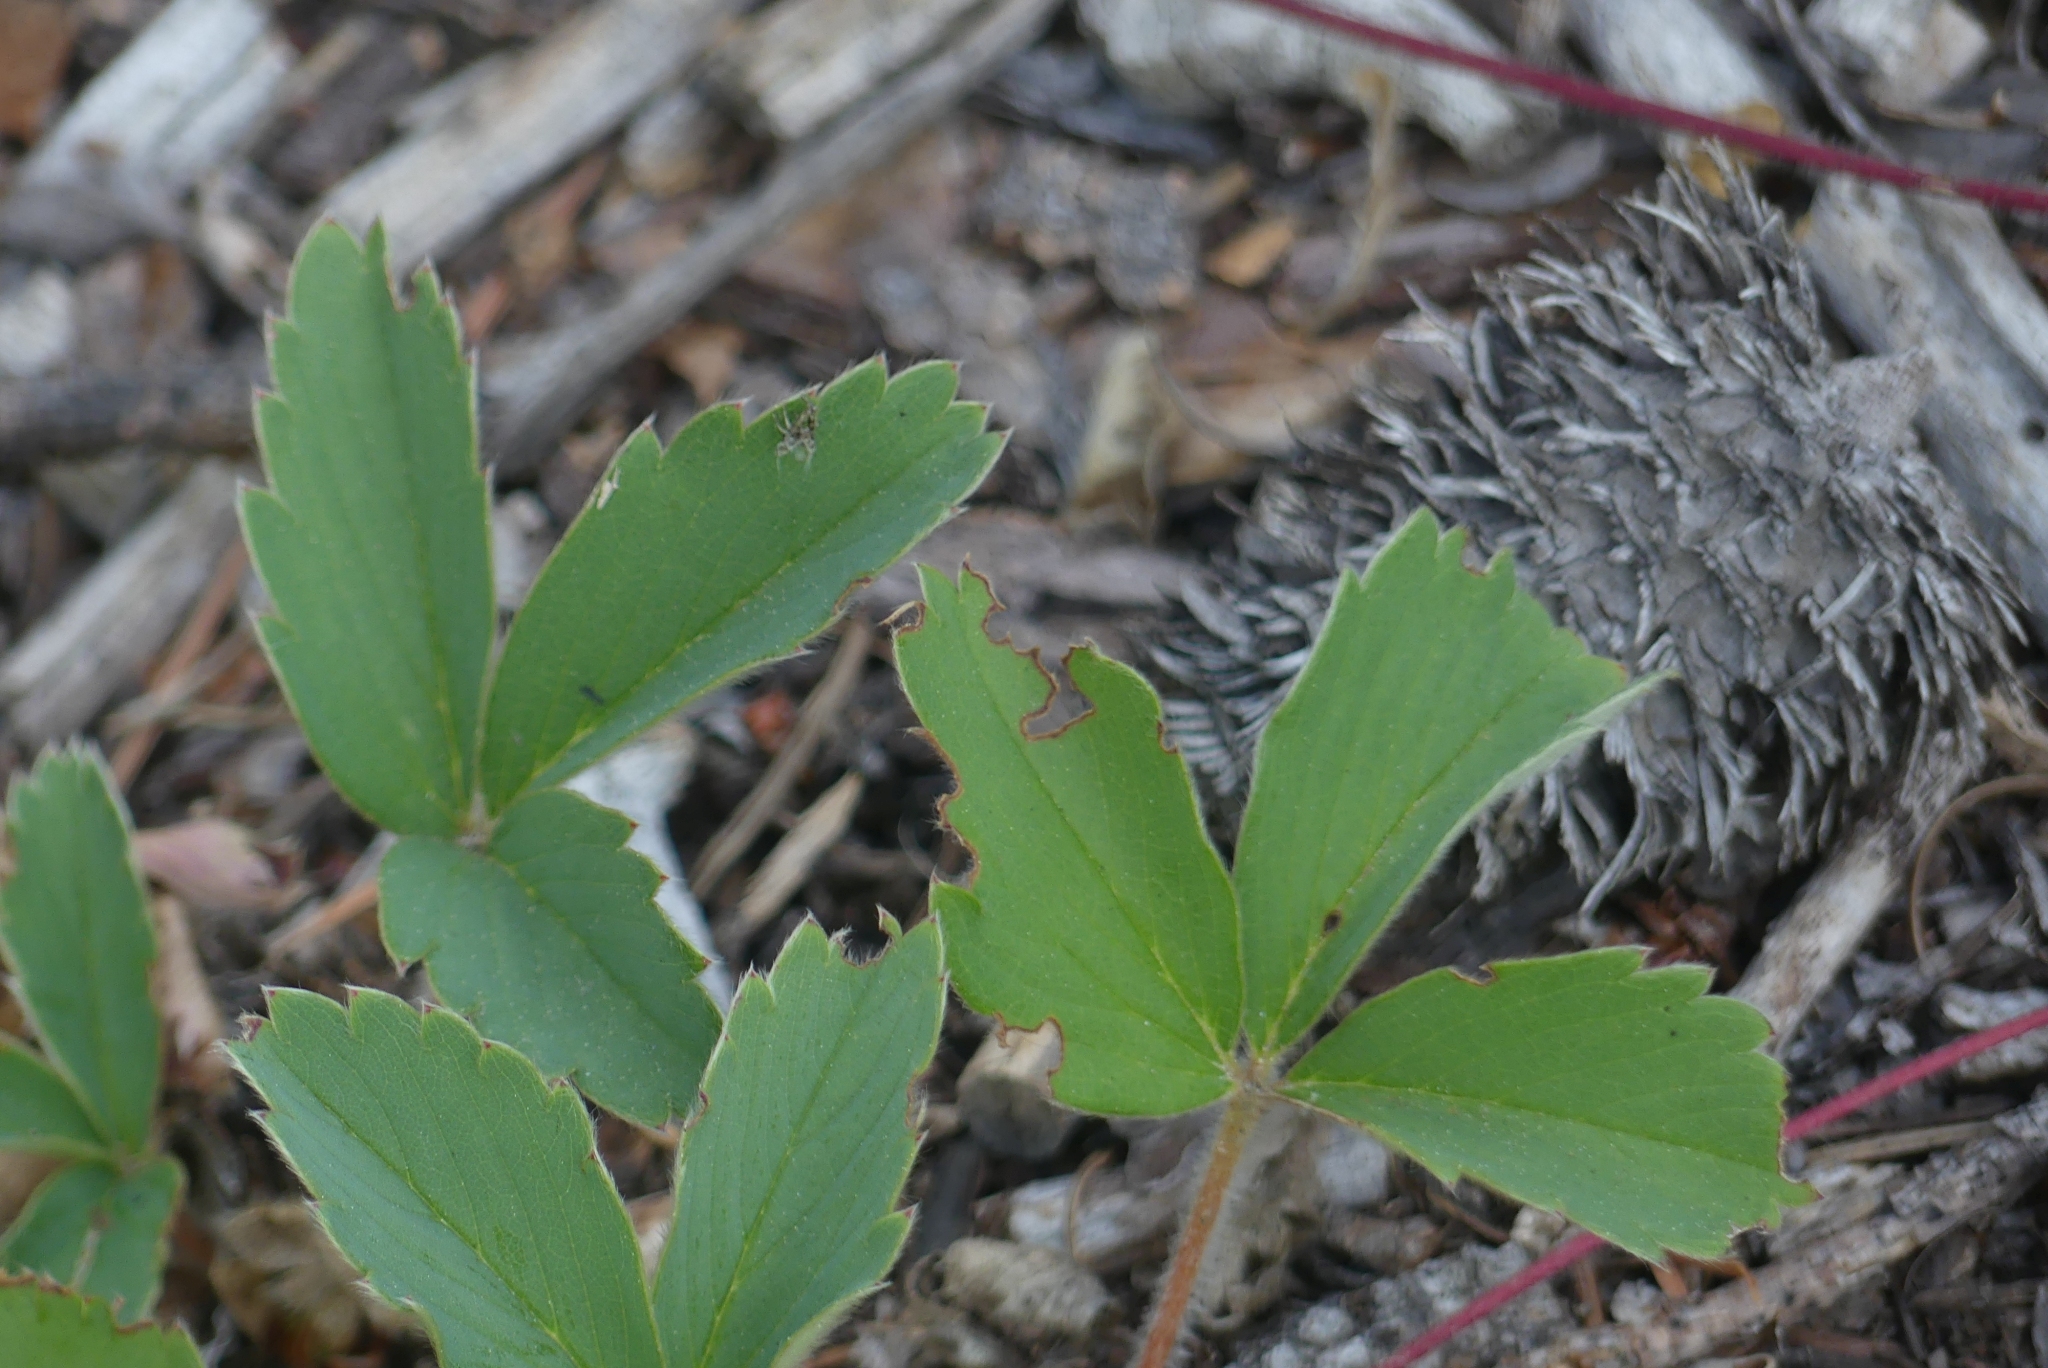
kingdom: Plantae
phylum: Tracheophyta
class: Magnoliopsida
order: Rosales
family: Rosaceae
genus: Fragaria
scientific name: Fragaria virginiana
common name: Thickleaved wild strawberry
